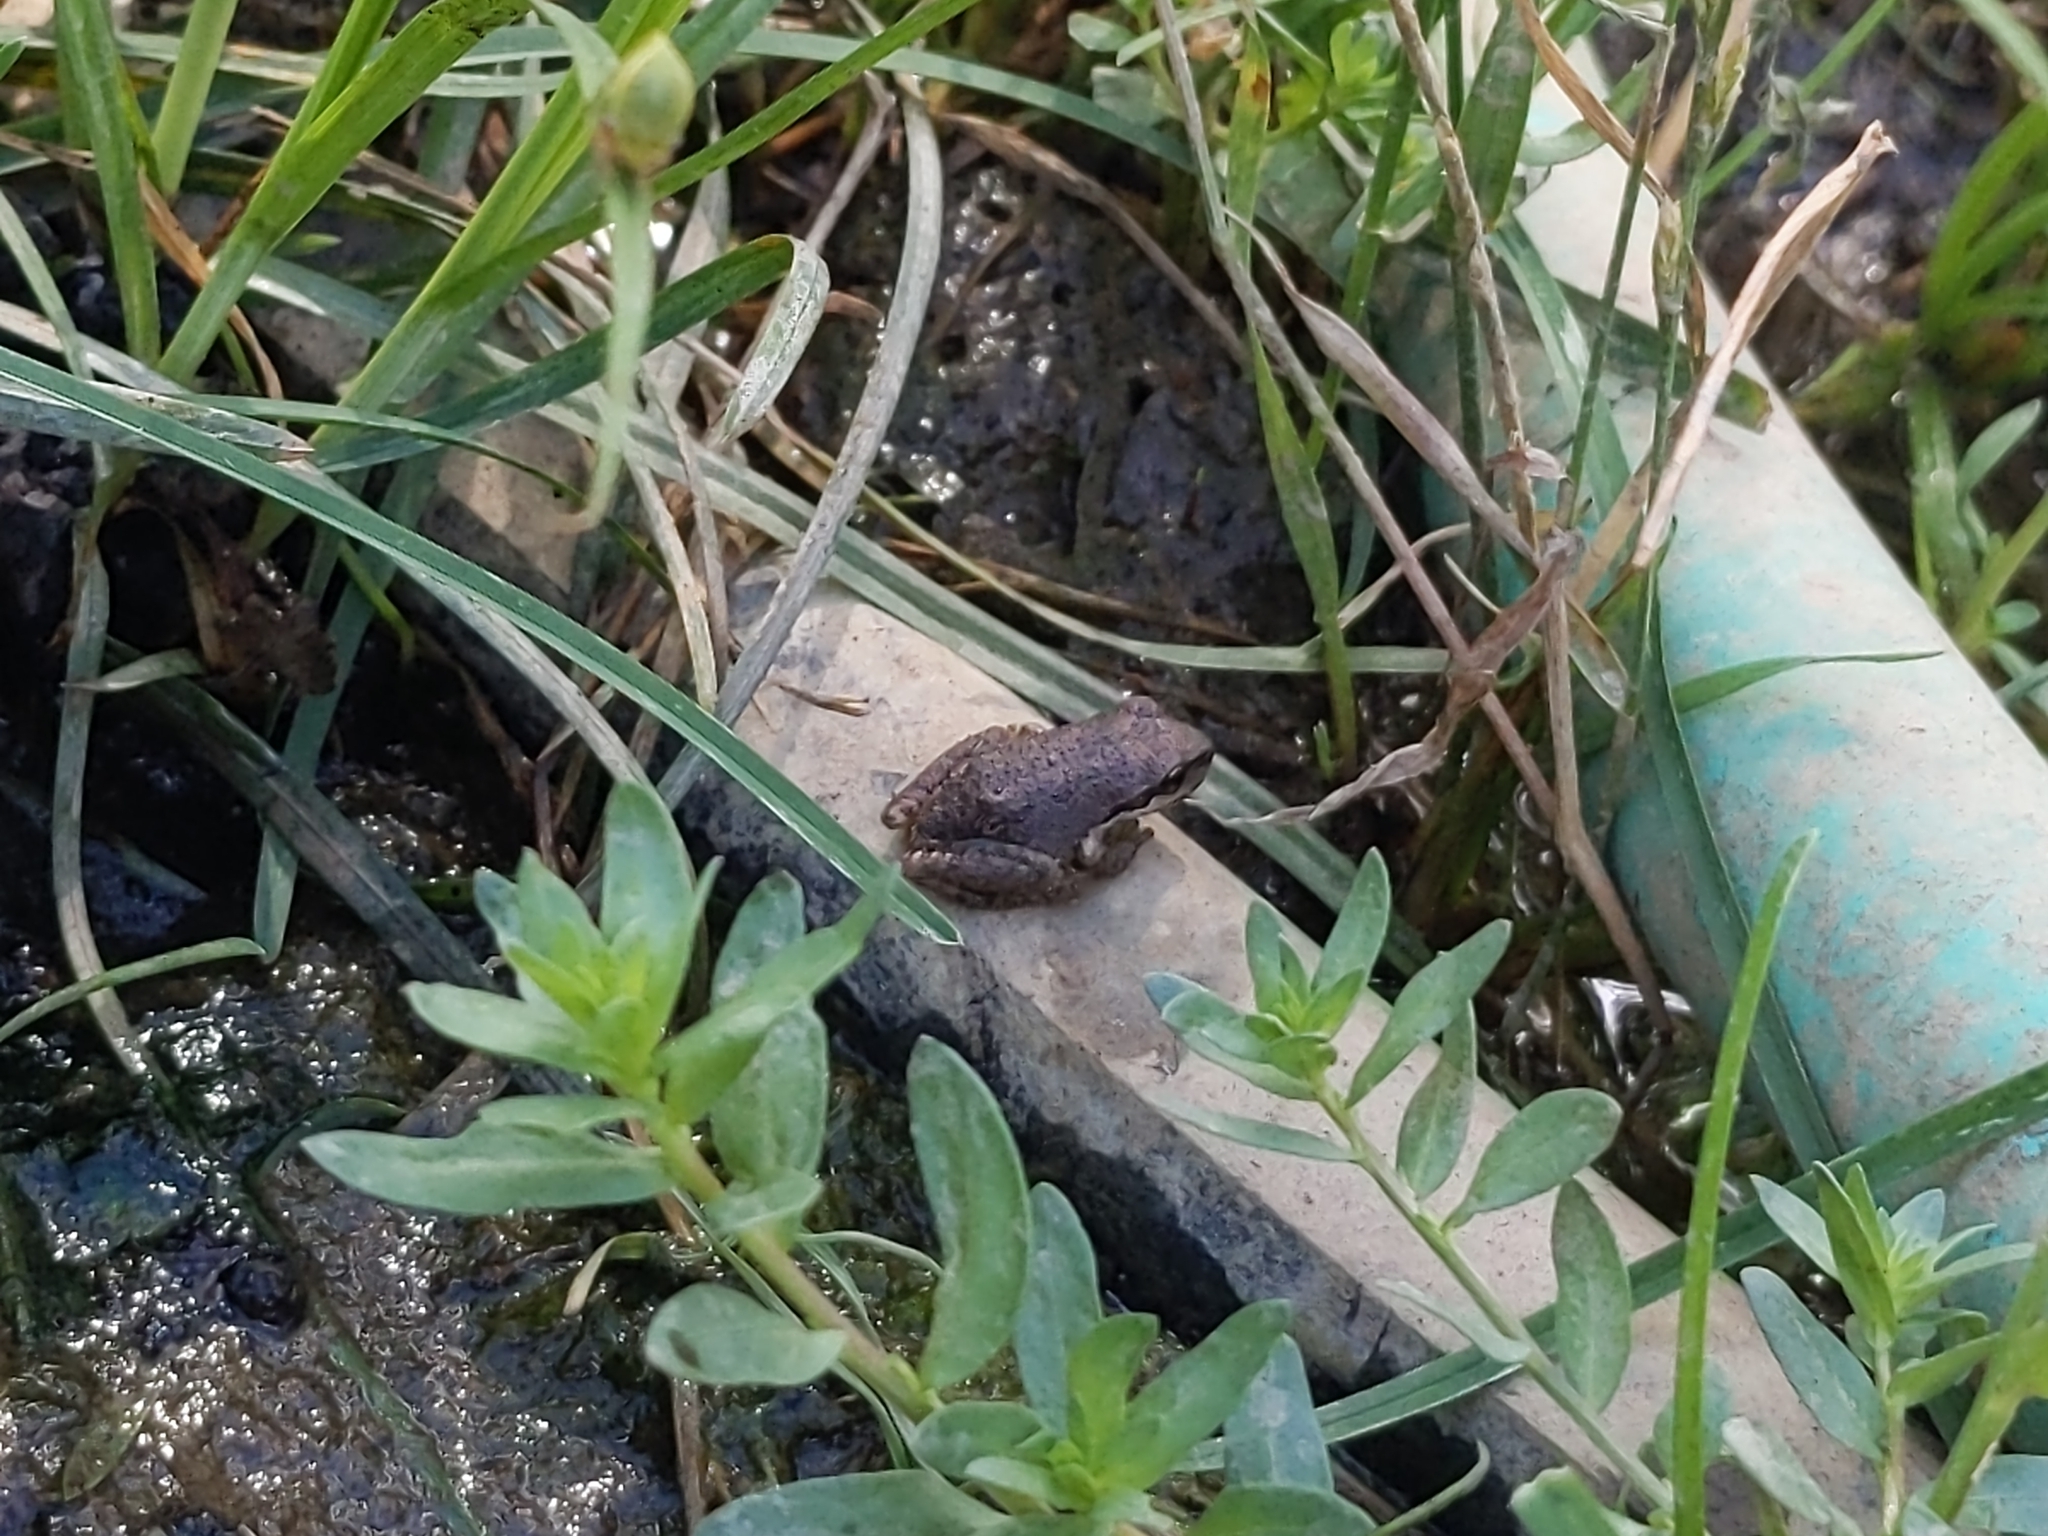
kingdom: Animalia
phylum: Chordata
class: Amphibia
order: Anura
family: Hylidae
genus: Pseudacris
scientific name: Pseudacris regilla
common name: Pacific chorus frog
